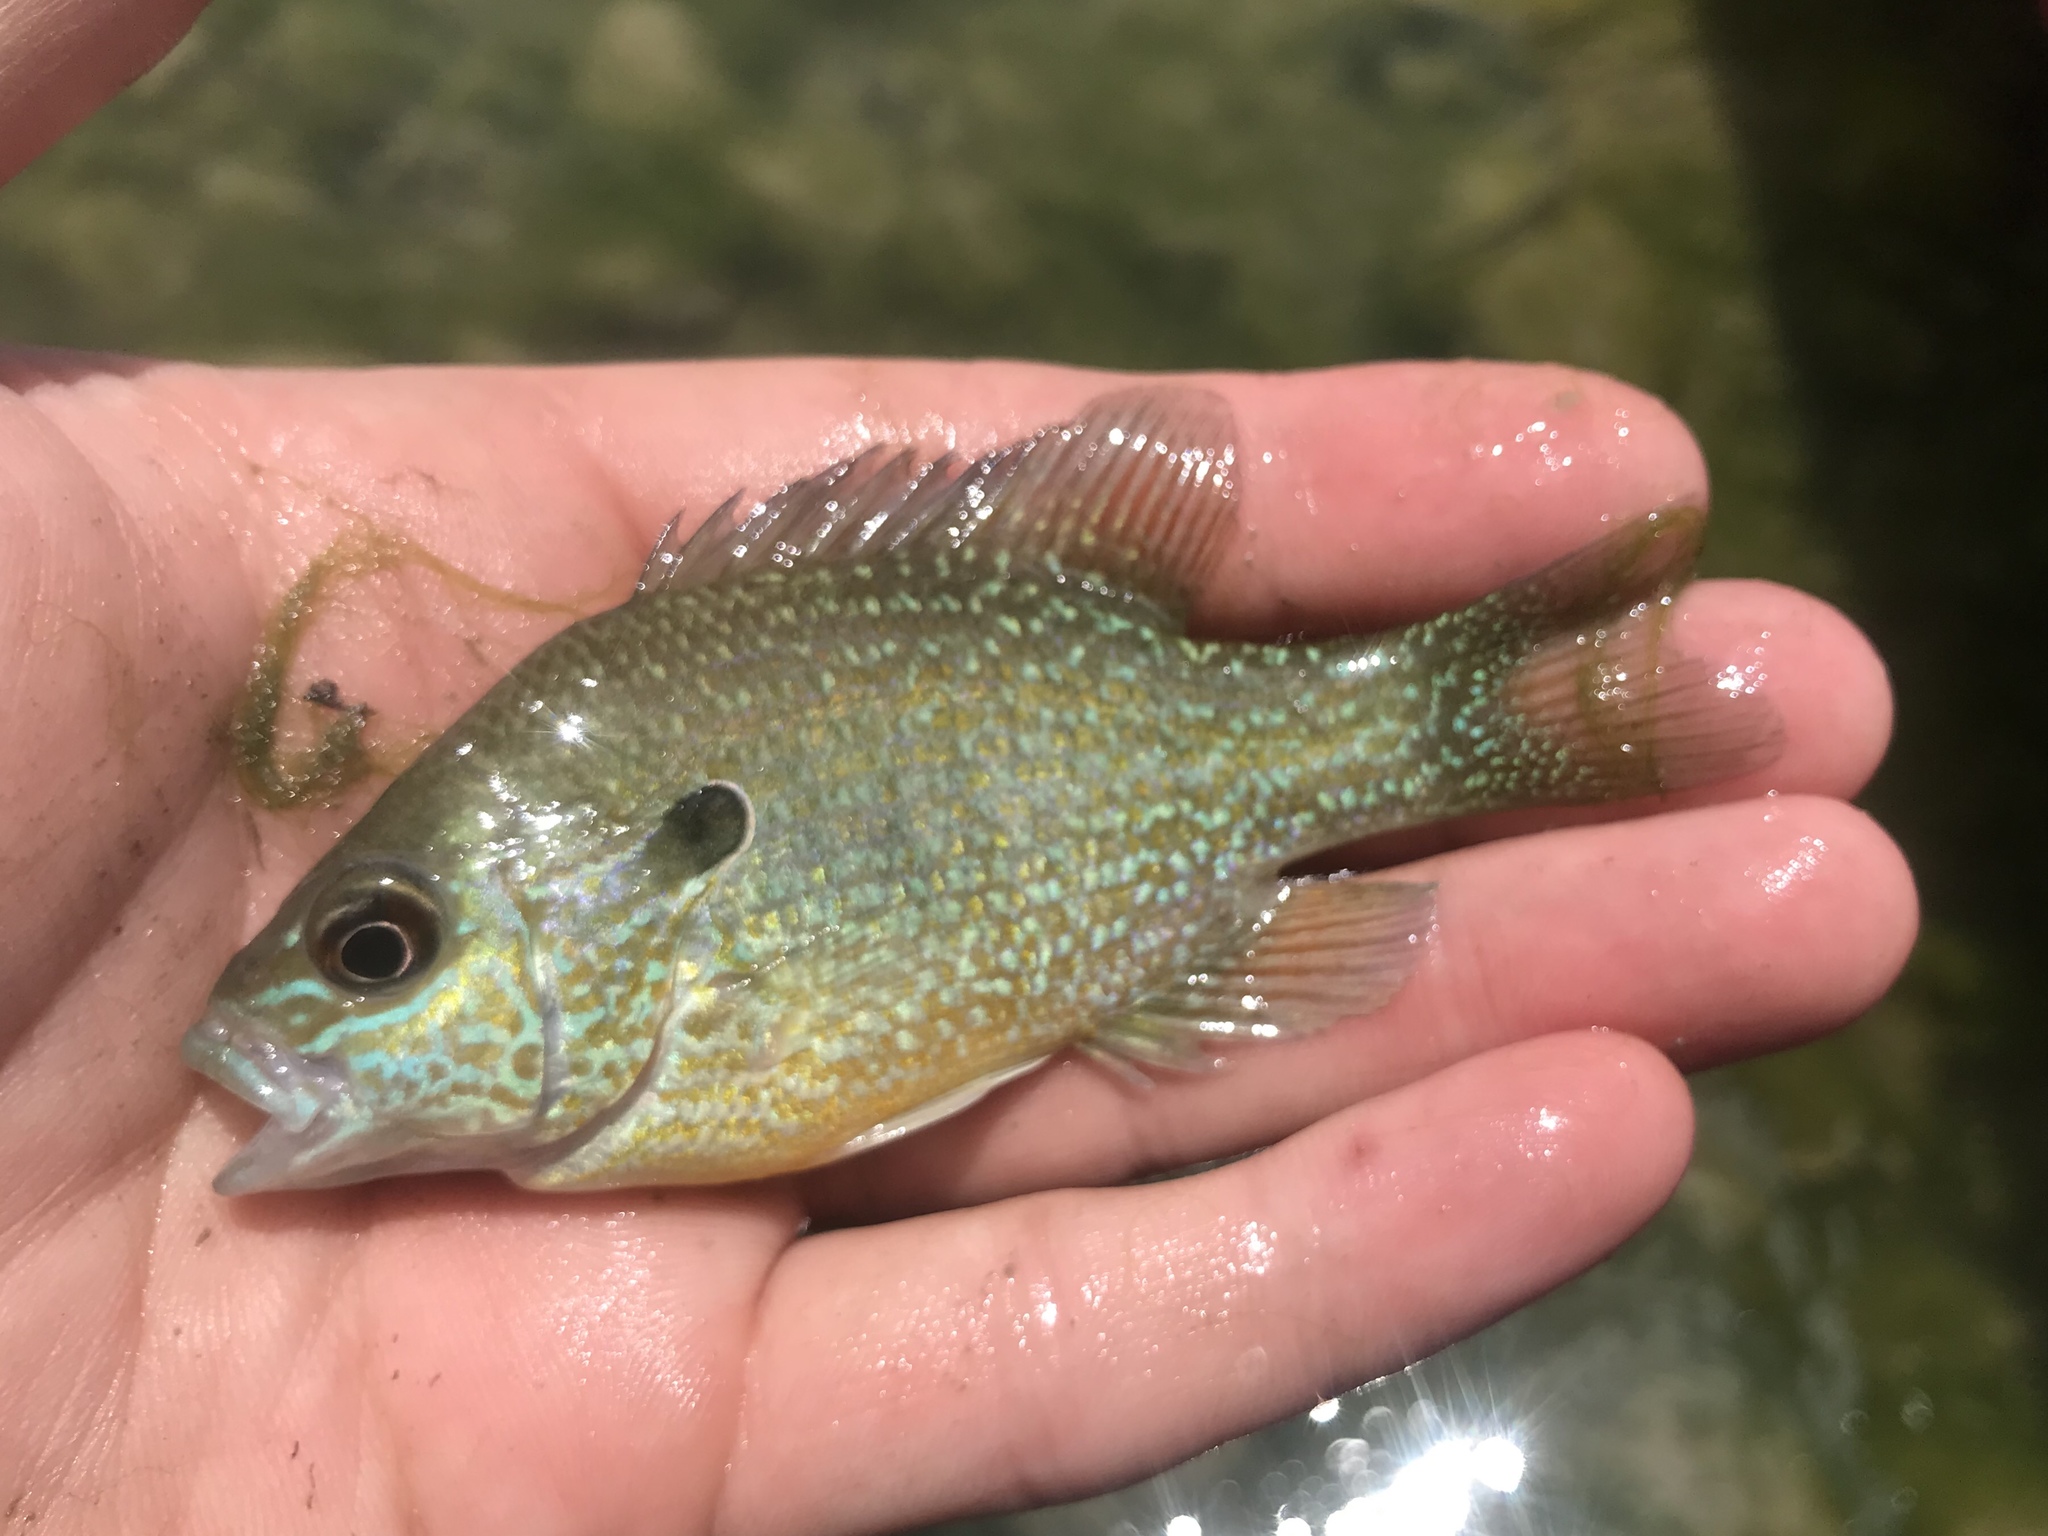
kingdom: Animalia
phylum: Chordata
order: Perciformes
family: Centrarchidae
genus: Lepomis
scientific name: Lepomis megalotis
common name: Longear sunfish
